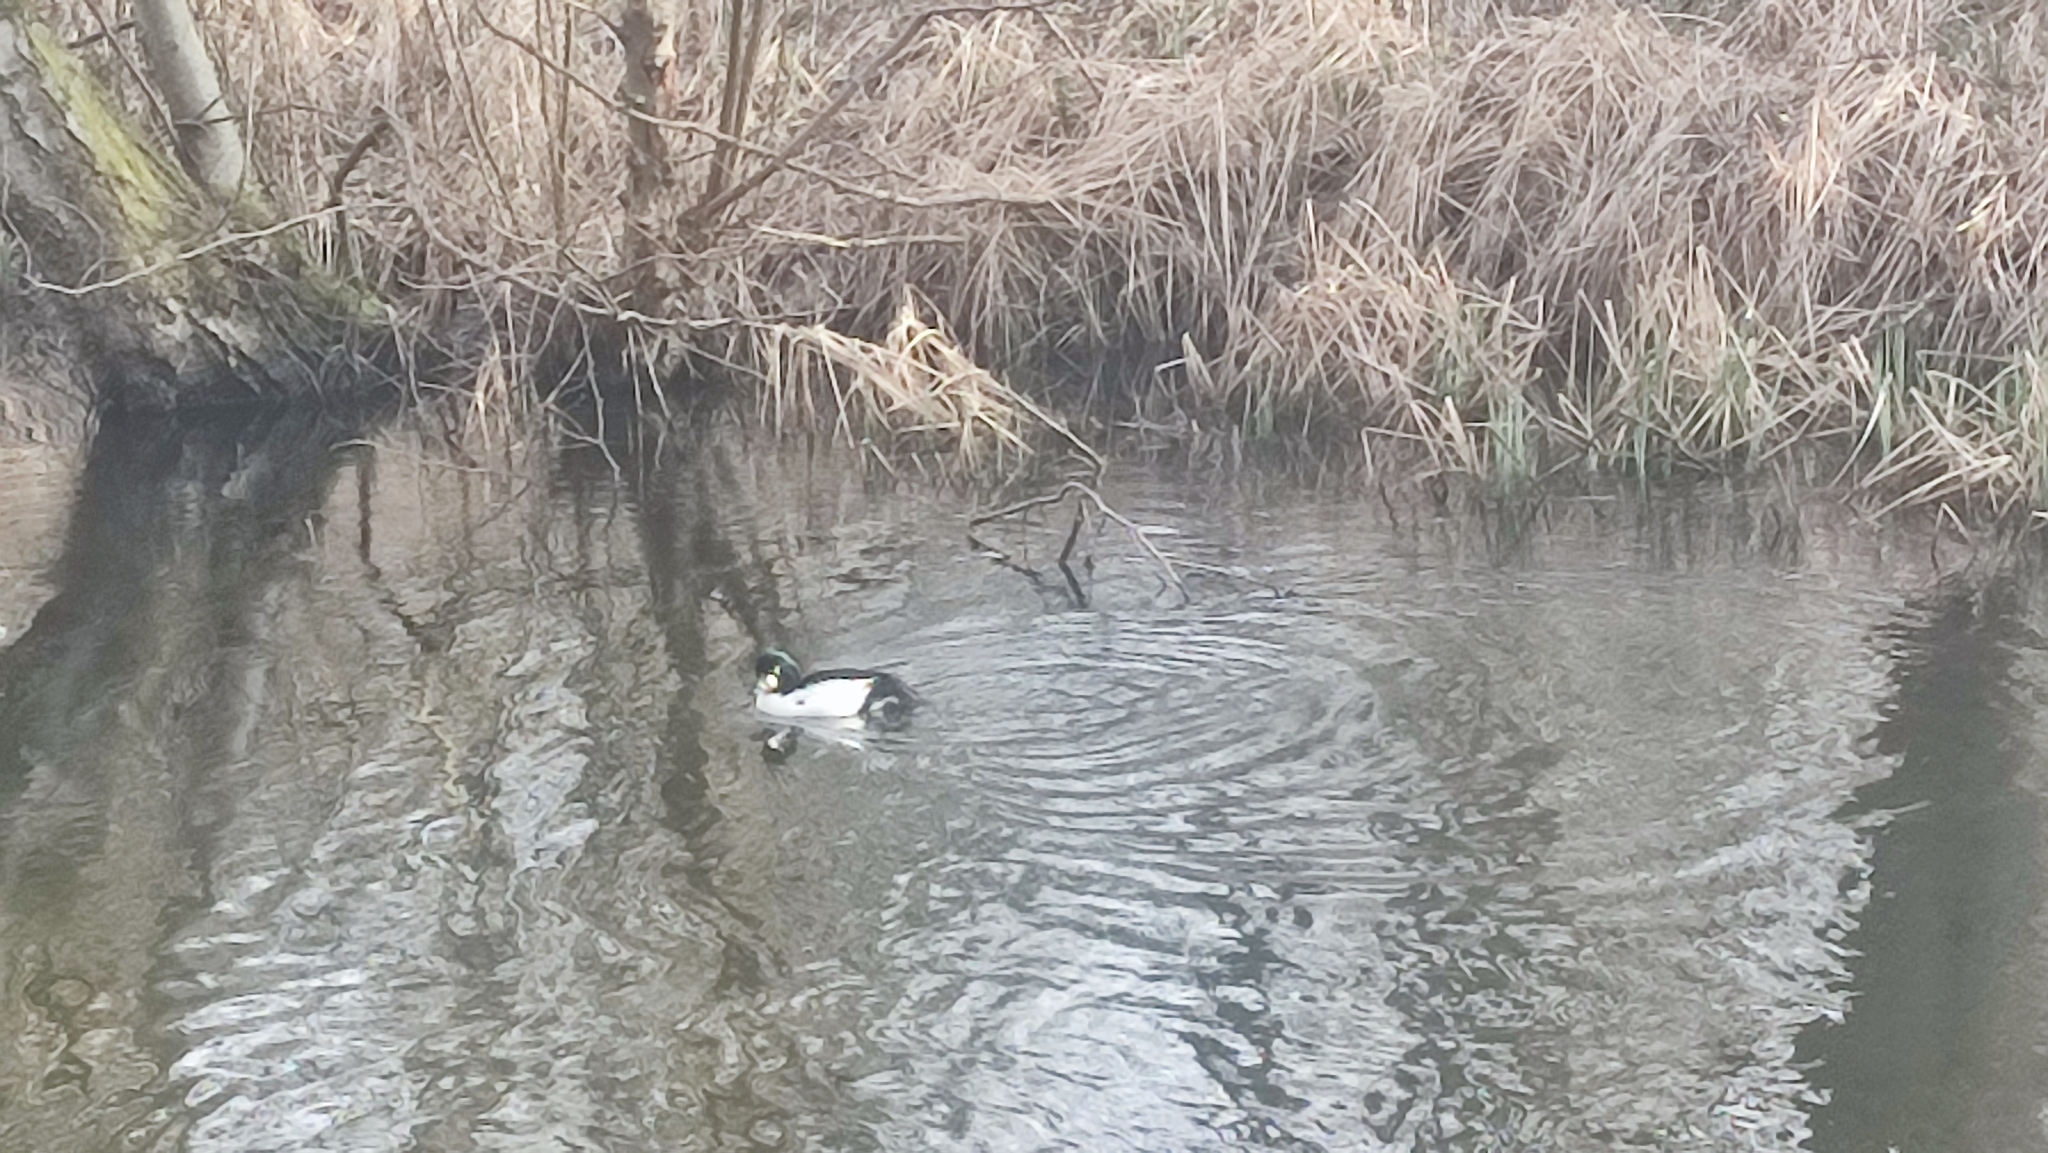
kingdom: Animalia
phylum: Chordata
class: Aves
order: Anseriformes
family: Anatidae
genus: Bucephala
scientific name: Bucephala clangula
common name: Common goldeneye
